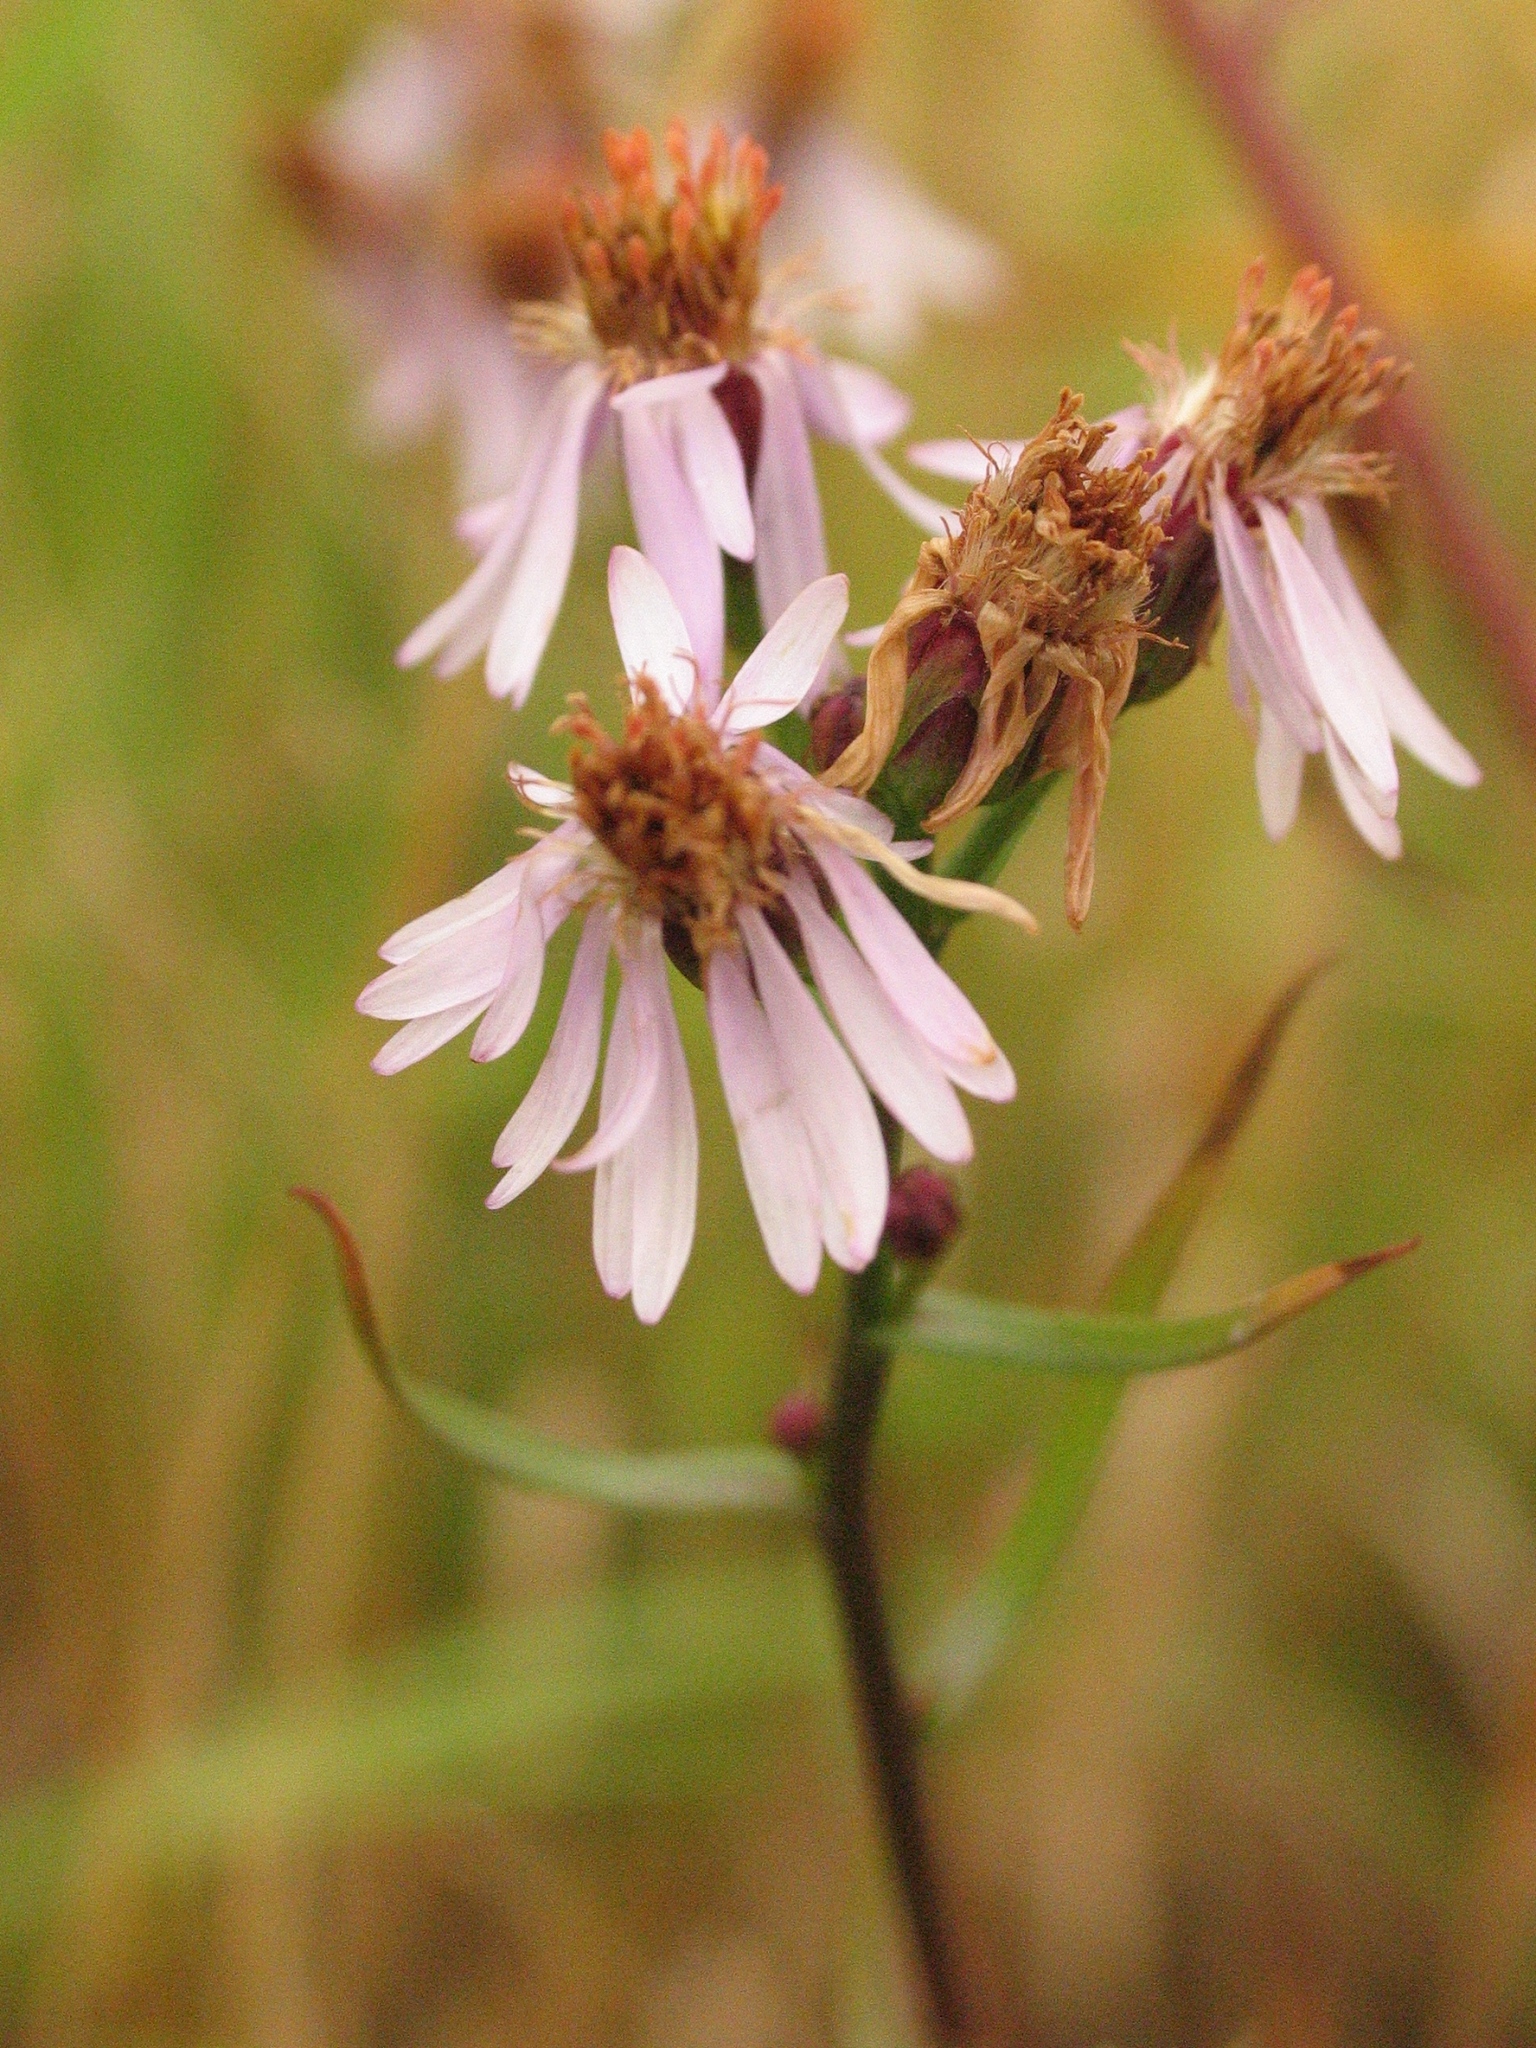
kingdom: Plantae
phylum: Tracheophyta
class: Magnoliopsida
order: Asterales
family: Asteraceae
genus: Tripolium
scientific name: Tripolium pannonicum
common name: Sea aster
